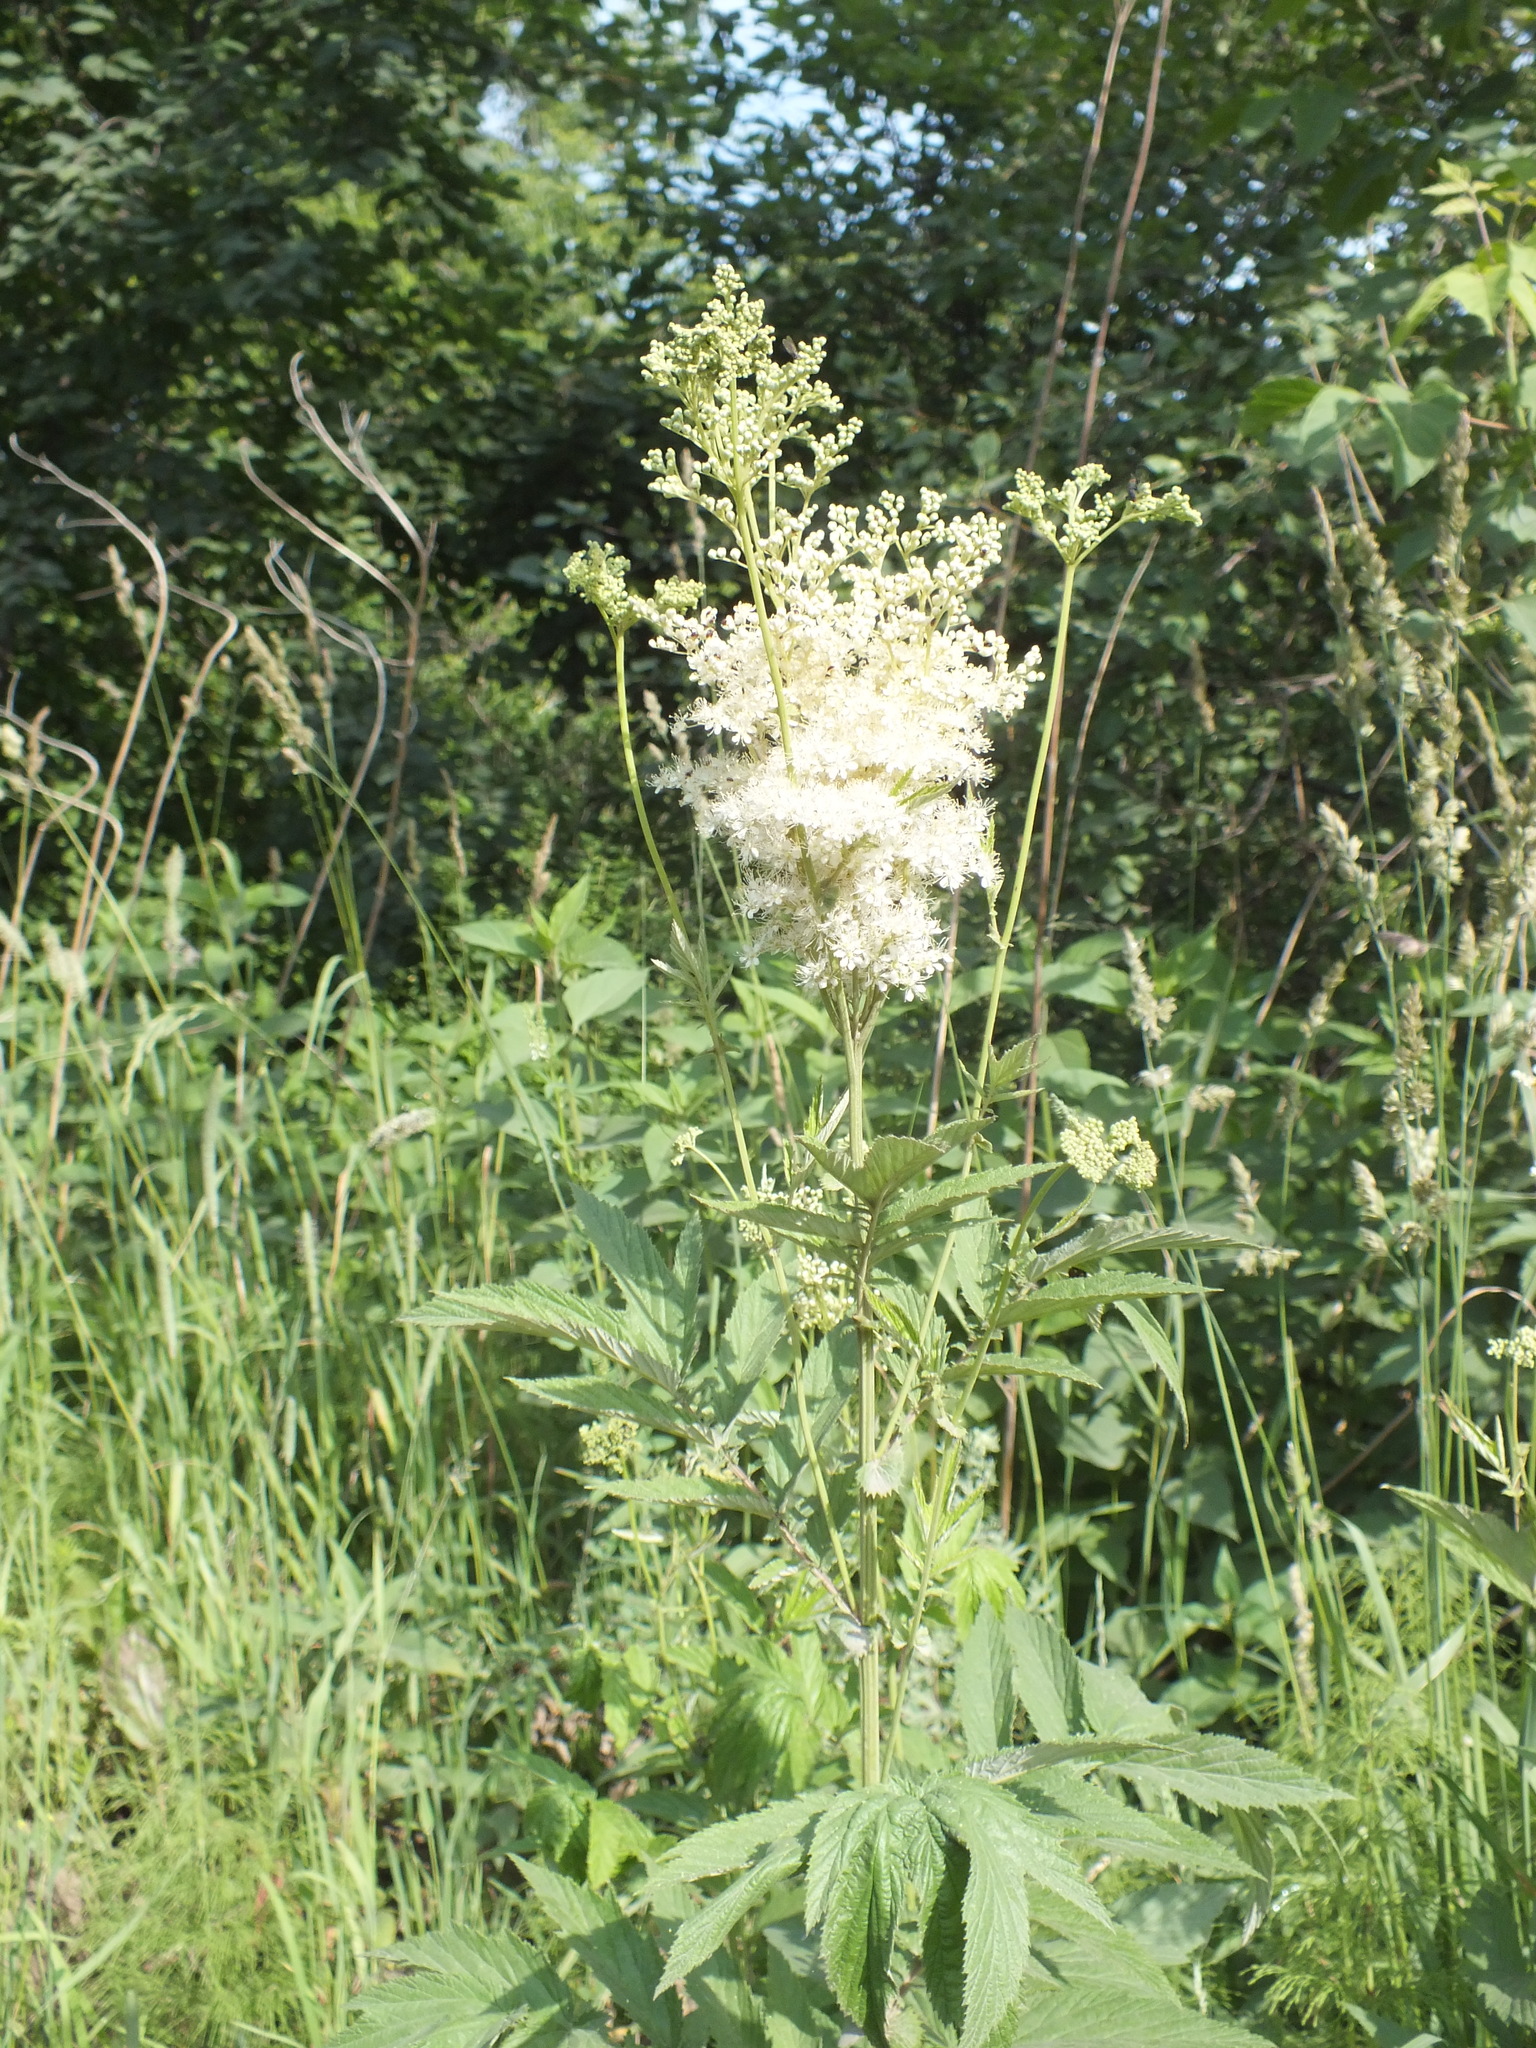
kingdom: Plantae
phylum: Tracheophyta
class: Magnoliopsida
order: Rosales
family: Rosaceae
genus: Filipendula
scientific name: Filipendula ulmaria
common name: Meadowsweet
